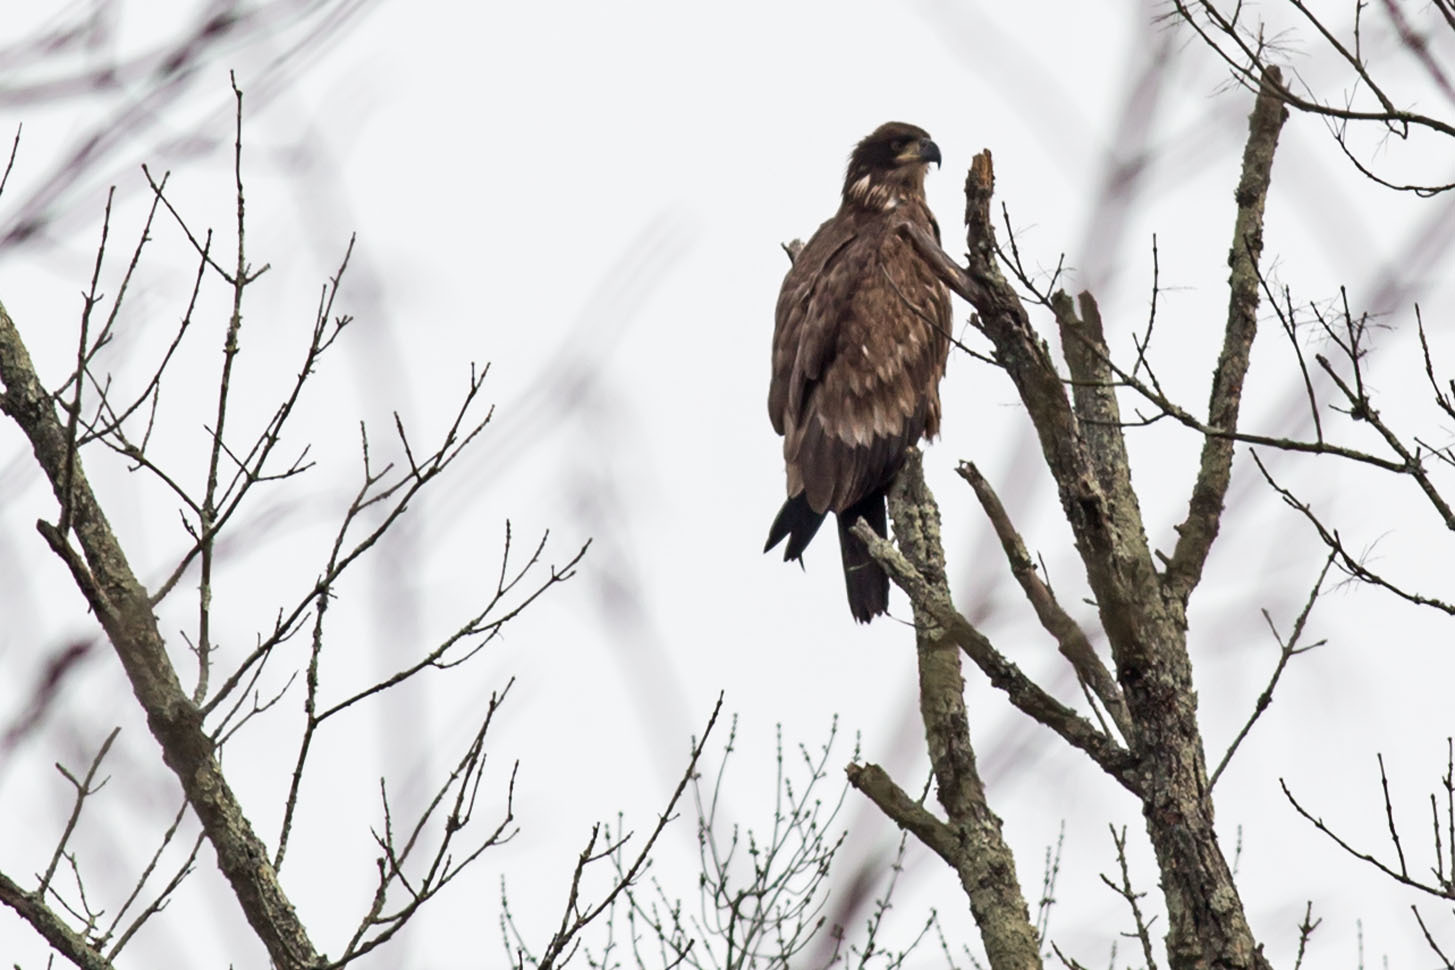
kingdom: Animalia
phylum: Chordata
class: Aves
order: Accipitriformes
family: Accipitridae
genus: Haliaeetus
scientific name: Haliaeetus leucocephalus
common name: Bald eagle
